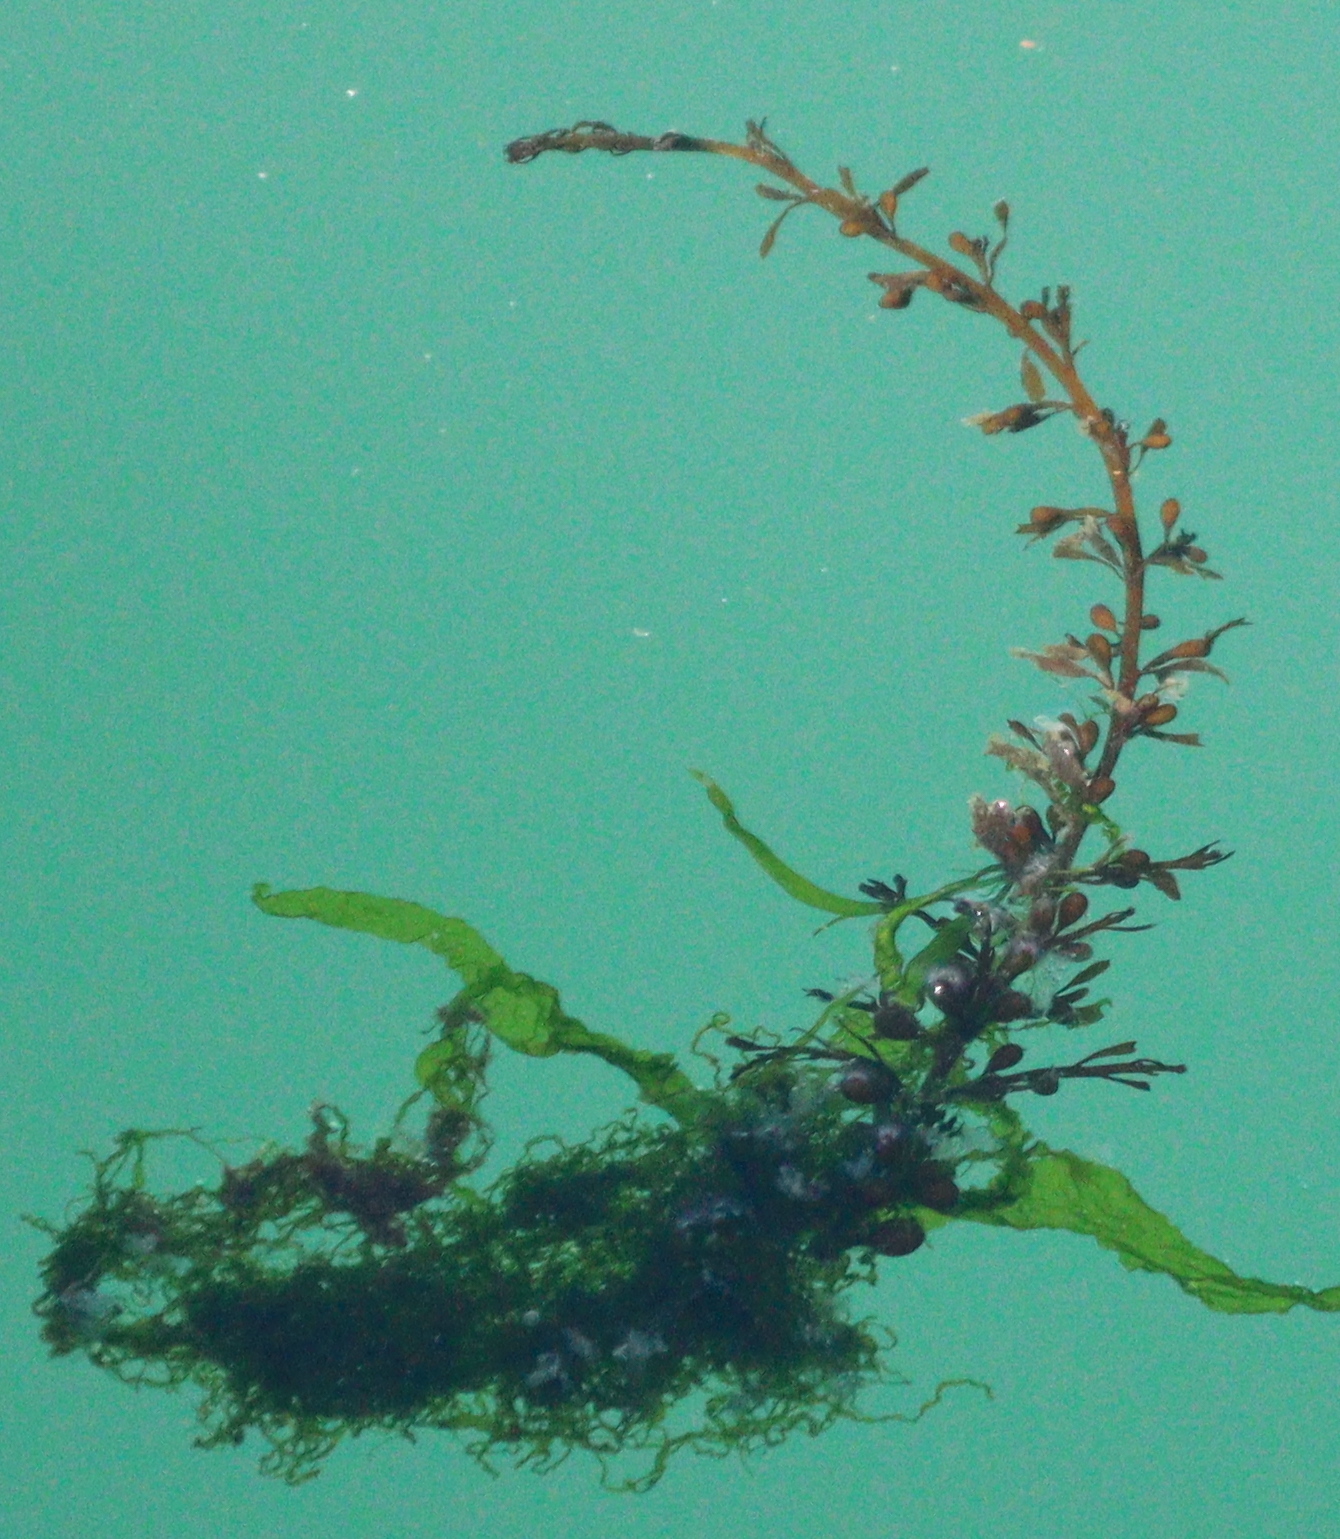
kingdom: Chromista
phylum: Ochrophyta
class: Phaeophyceae
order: Fucales
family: Sargassaceae
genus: Sargassum
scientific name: Sargassum muticum
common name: Japweed
